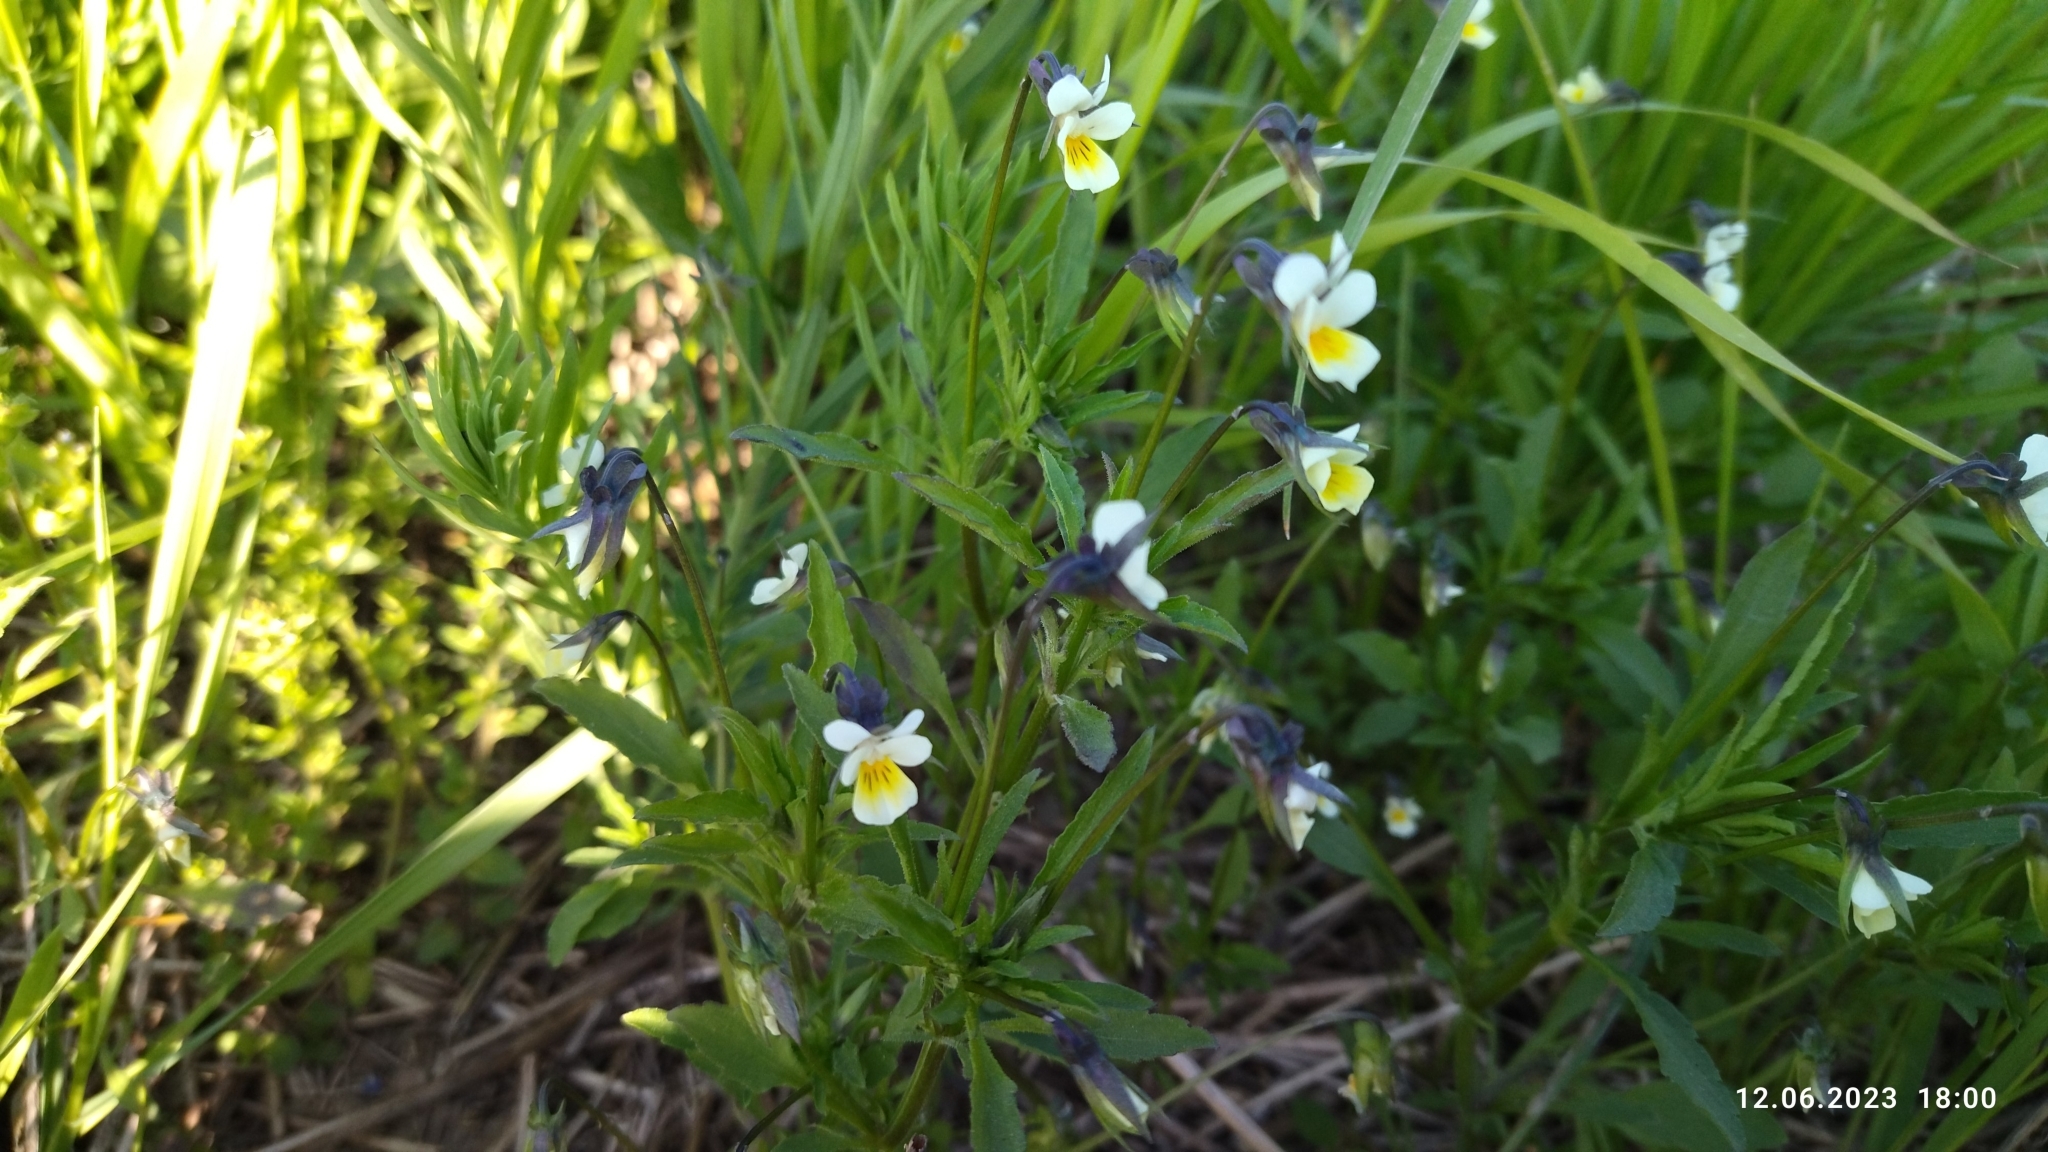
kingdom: Plantae
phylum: Tracheophyta
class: Magnoliopsida
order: Malpighiales
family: Violaceae
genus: Viola
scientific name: Viola arvensis
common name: Field pansy
